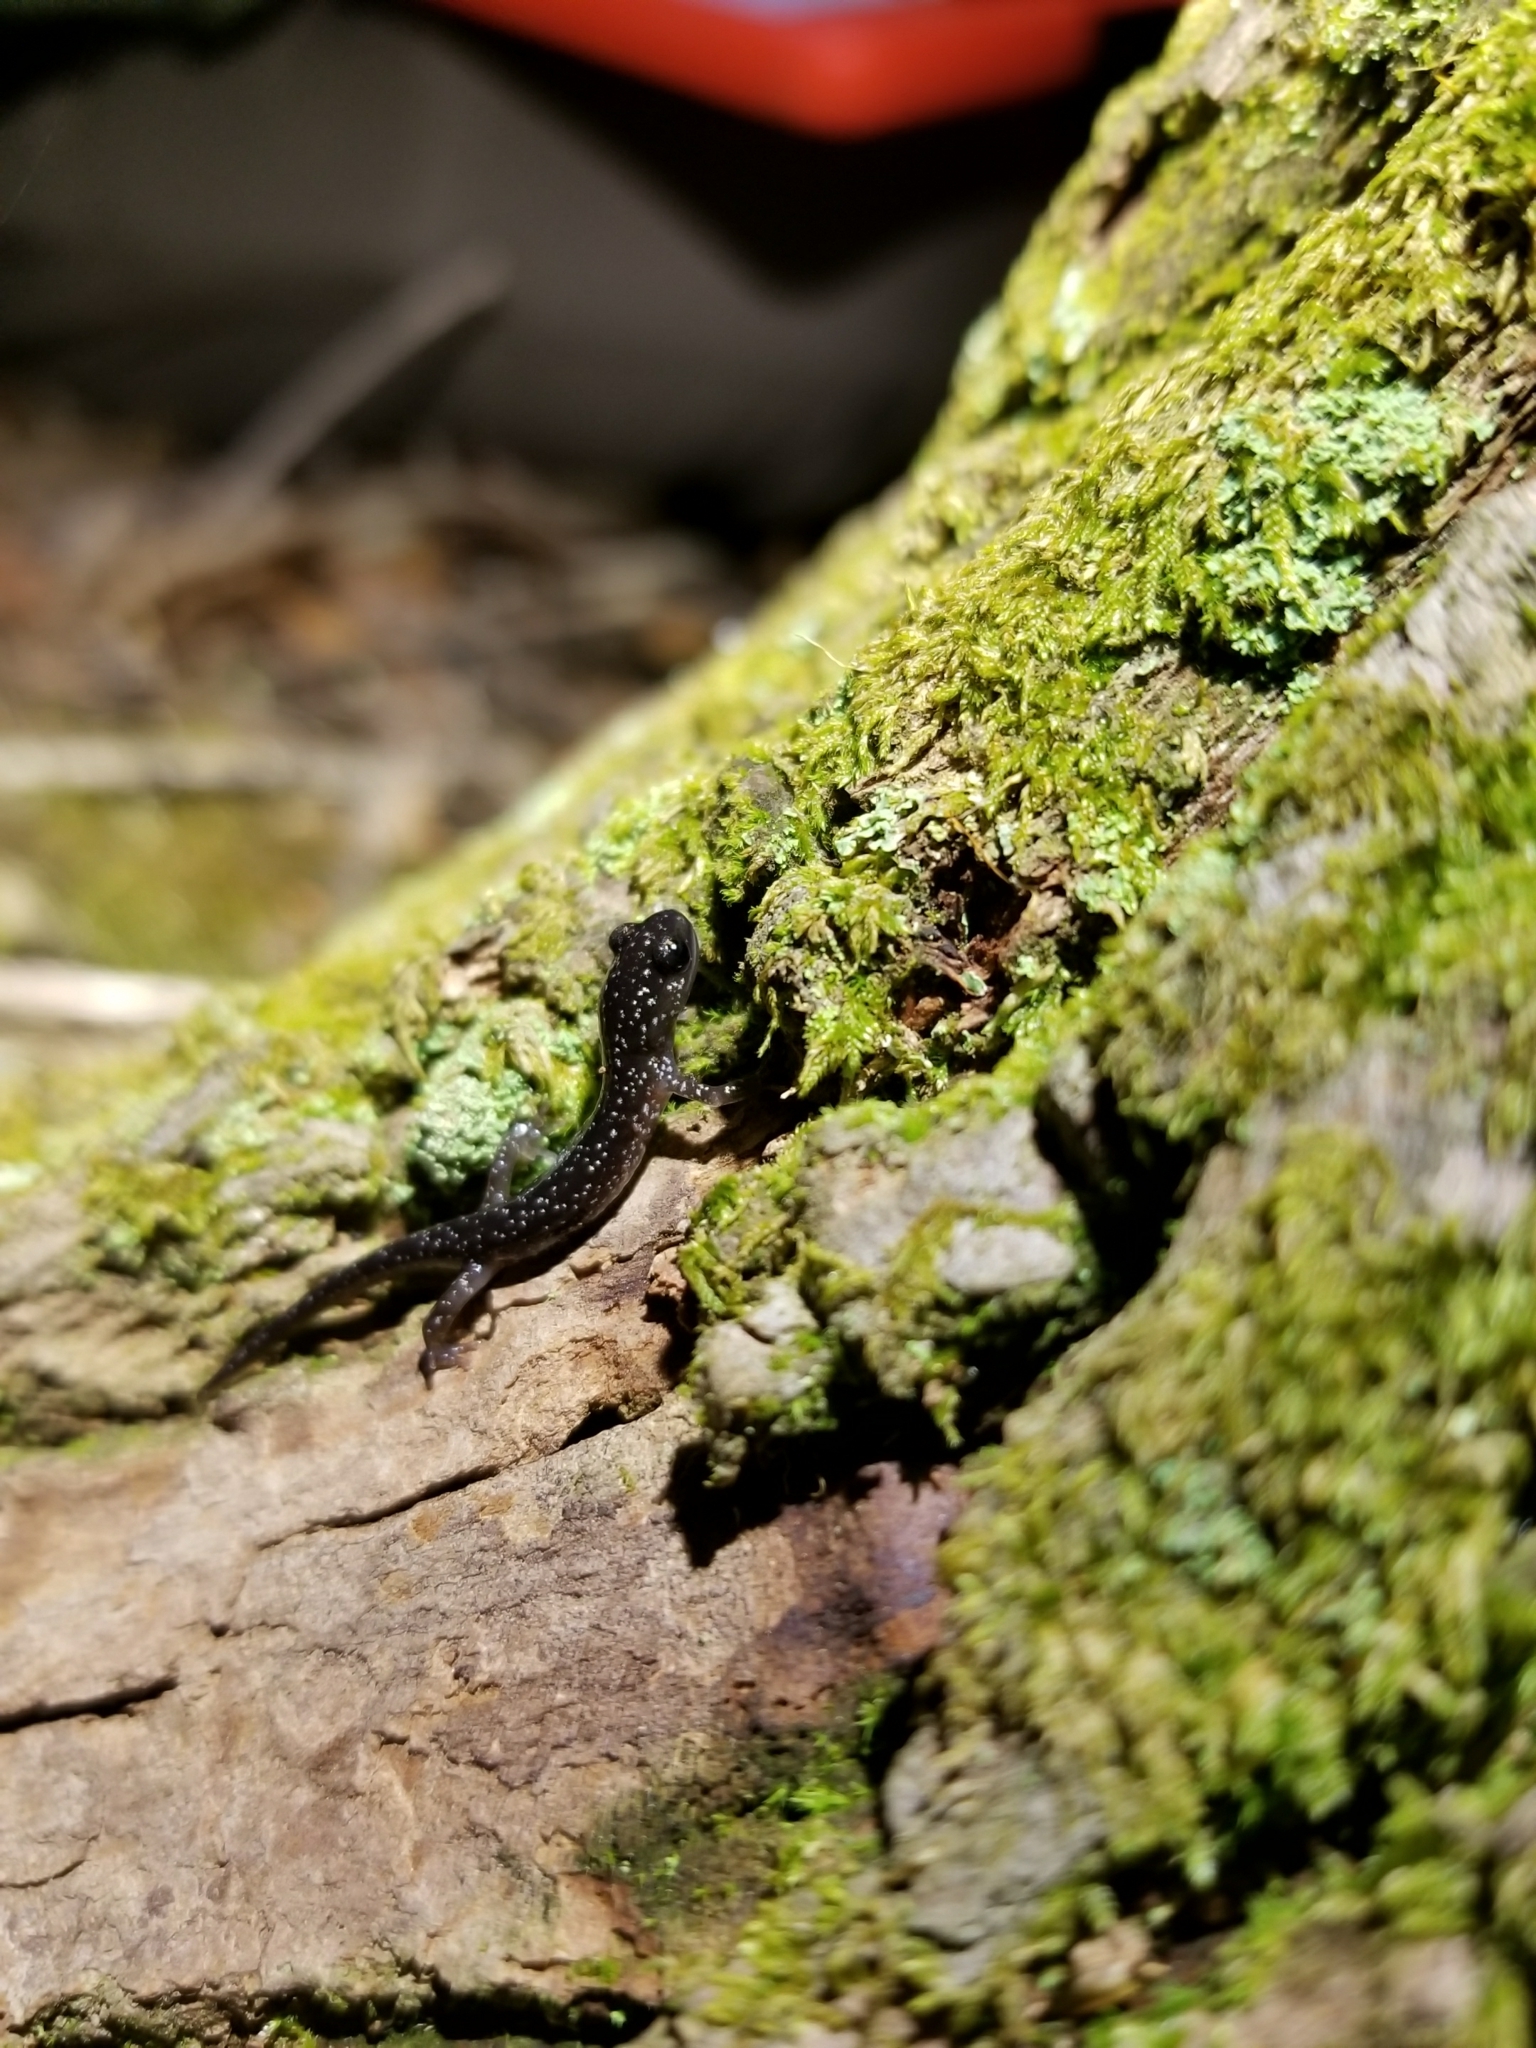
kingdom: Animalia
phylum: Chordata
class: Amphibia
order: Caudata
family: Plethodontidae
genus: Plethodon
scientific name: Plethodon glutinosus
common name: Northern slimy salamander
